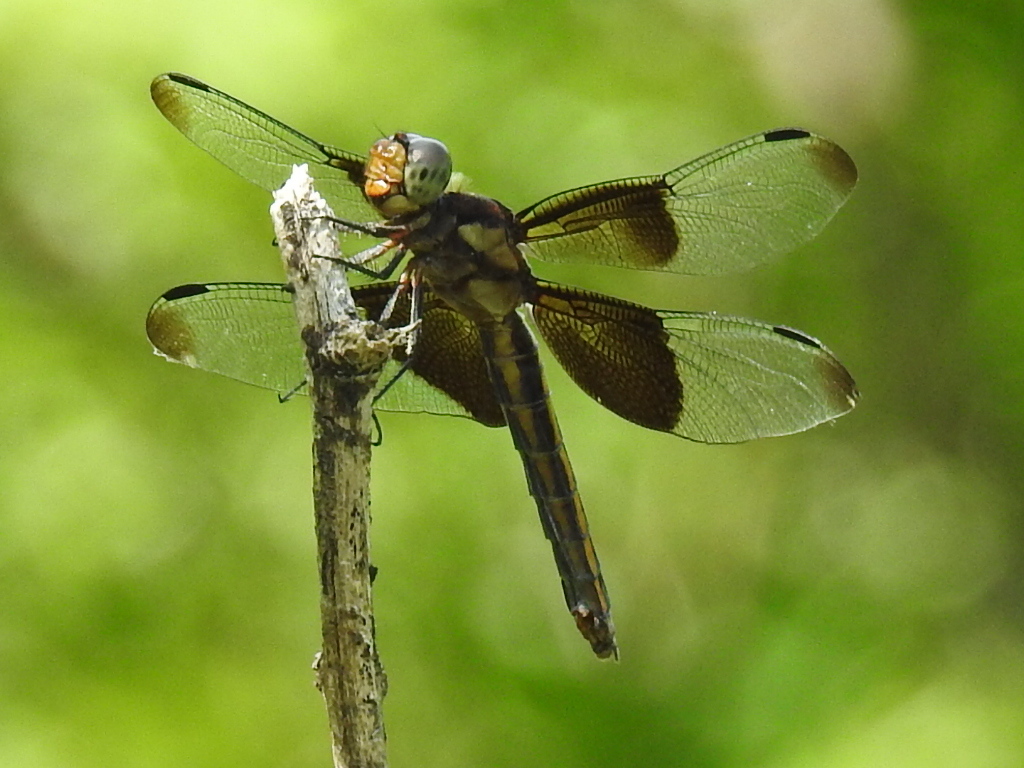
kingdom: Animalia
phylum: Arthropoda
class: Insecta
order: Odonata
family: Libellulidae
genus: Libellula
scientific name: Libellula luctuosa
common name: Widow skimmer
